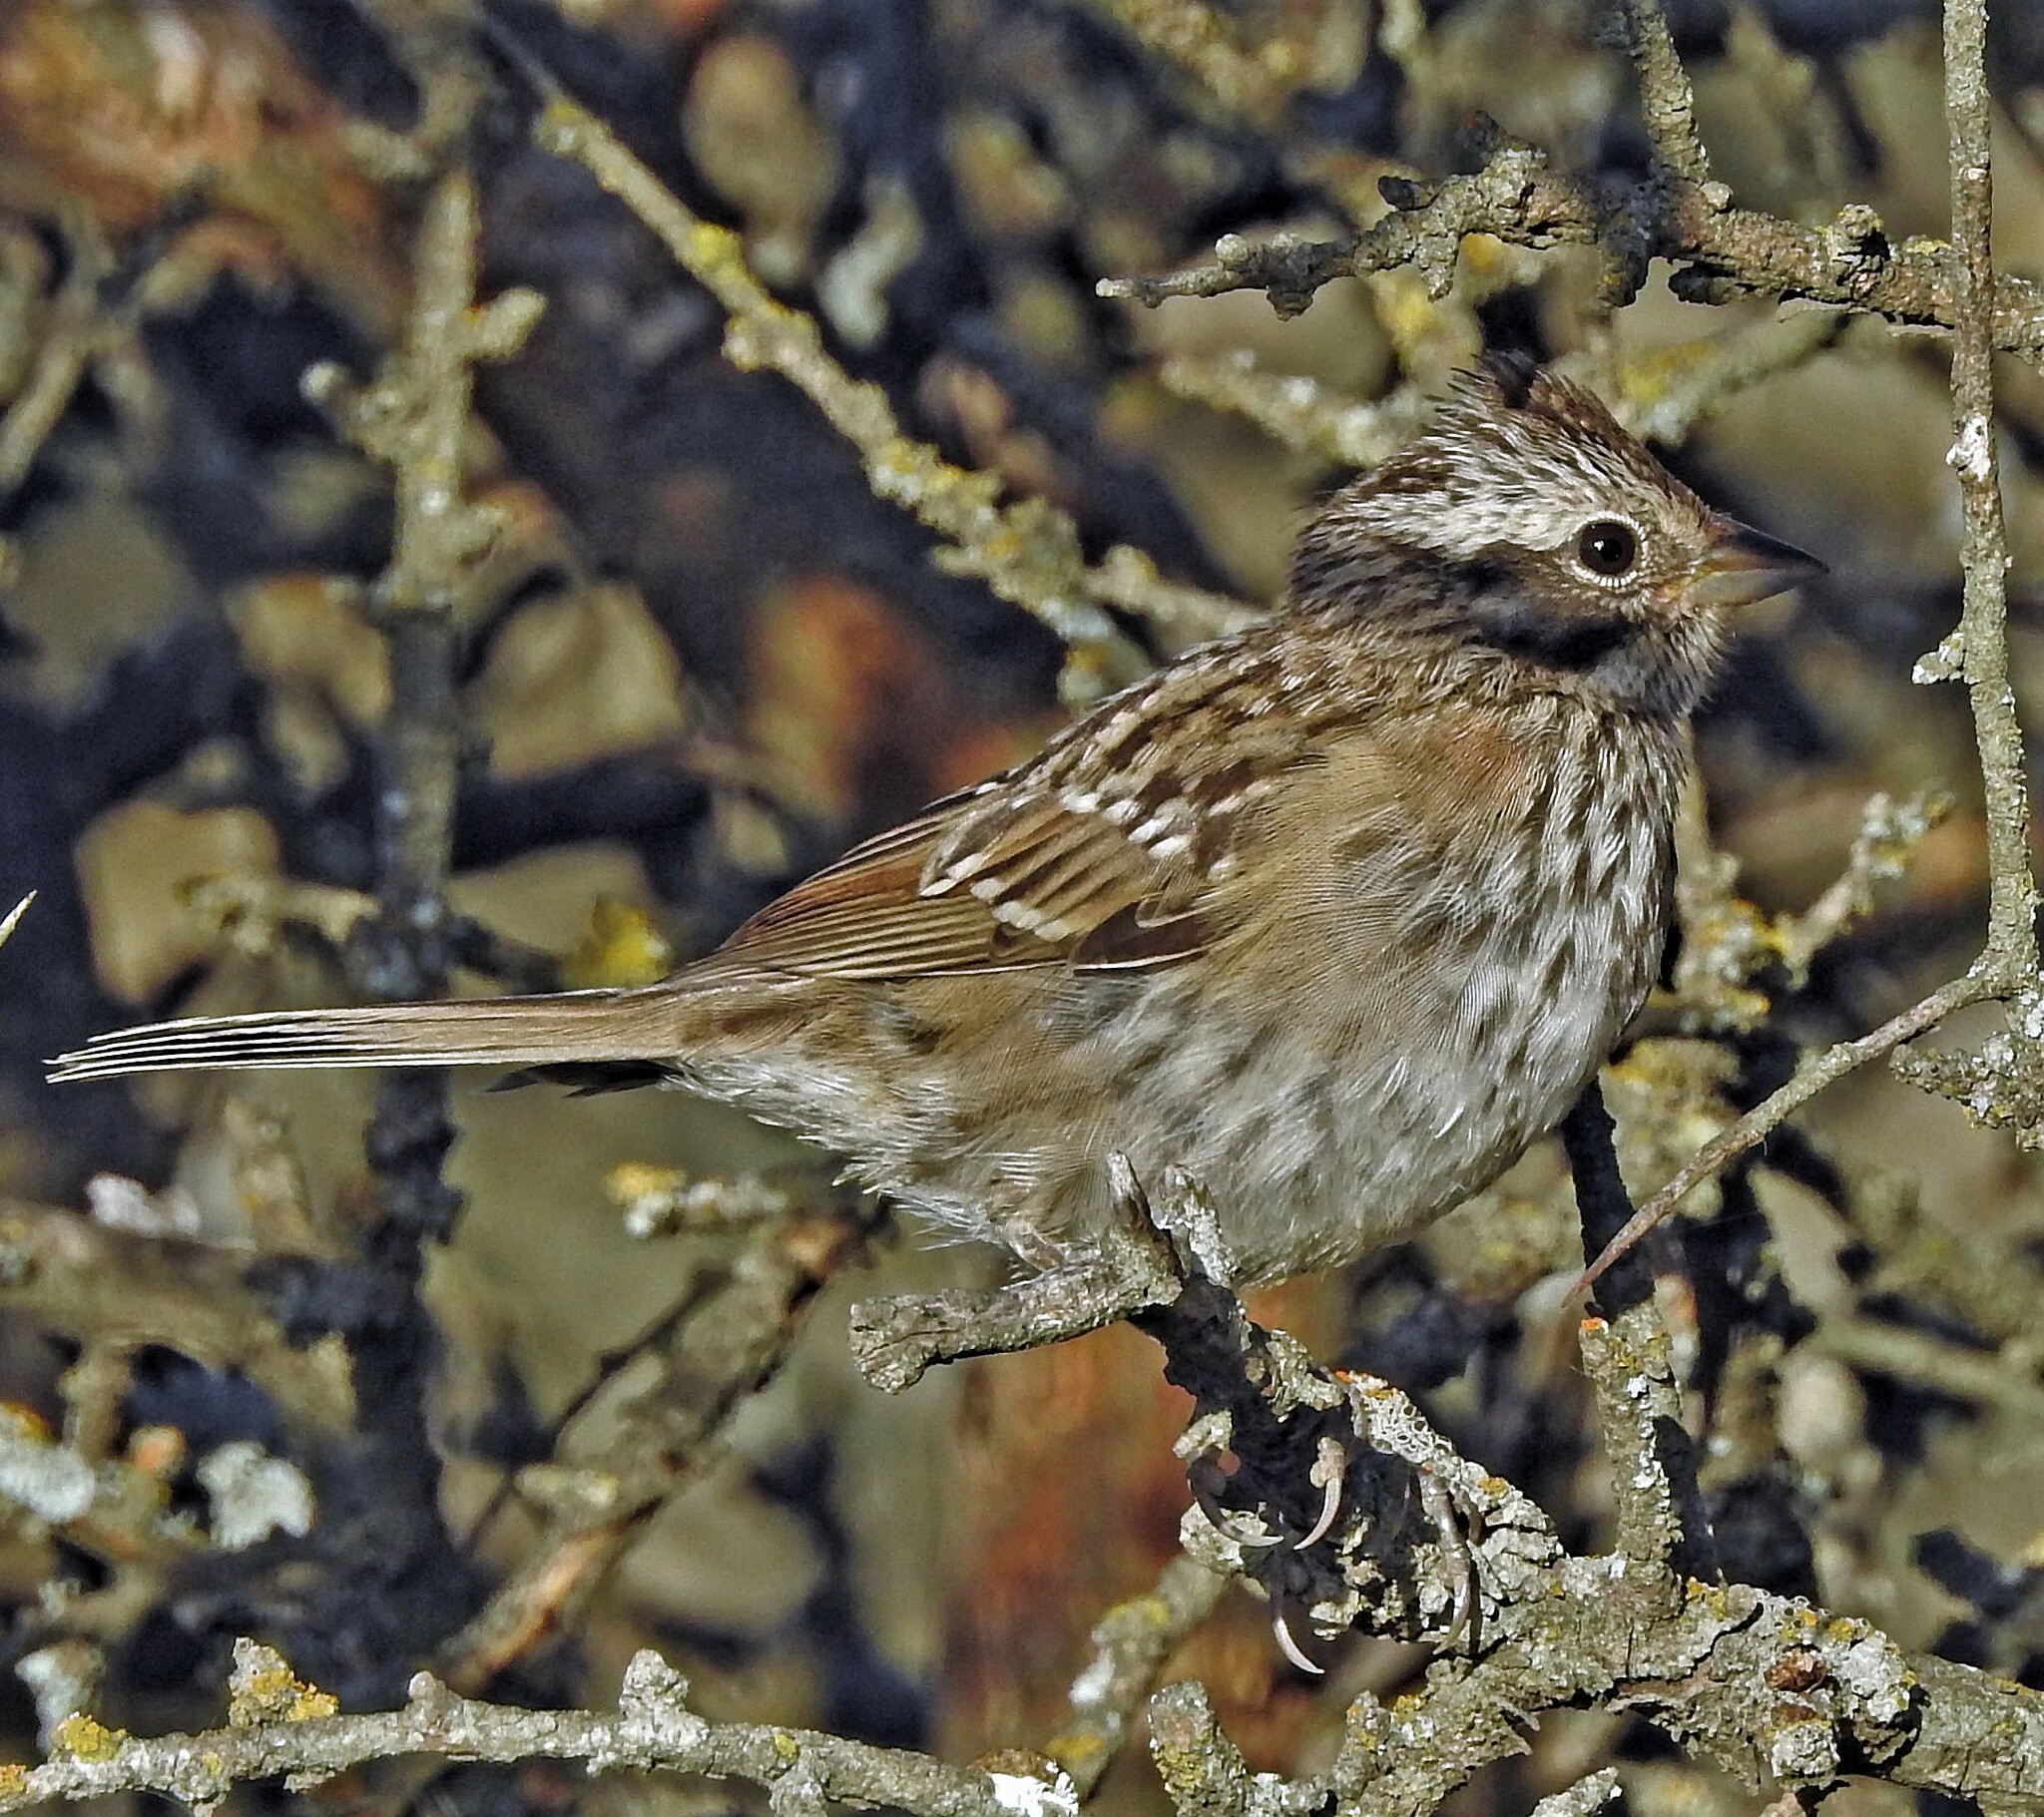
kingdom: Animalia
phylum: Chordata
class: Aves
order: Passeriformes
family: Passerellidae
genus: Zonotrichia
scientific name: Zonotrichia capensis
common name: Rufous-collared sparrow
